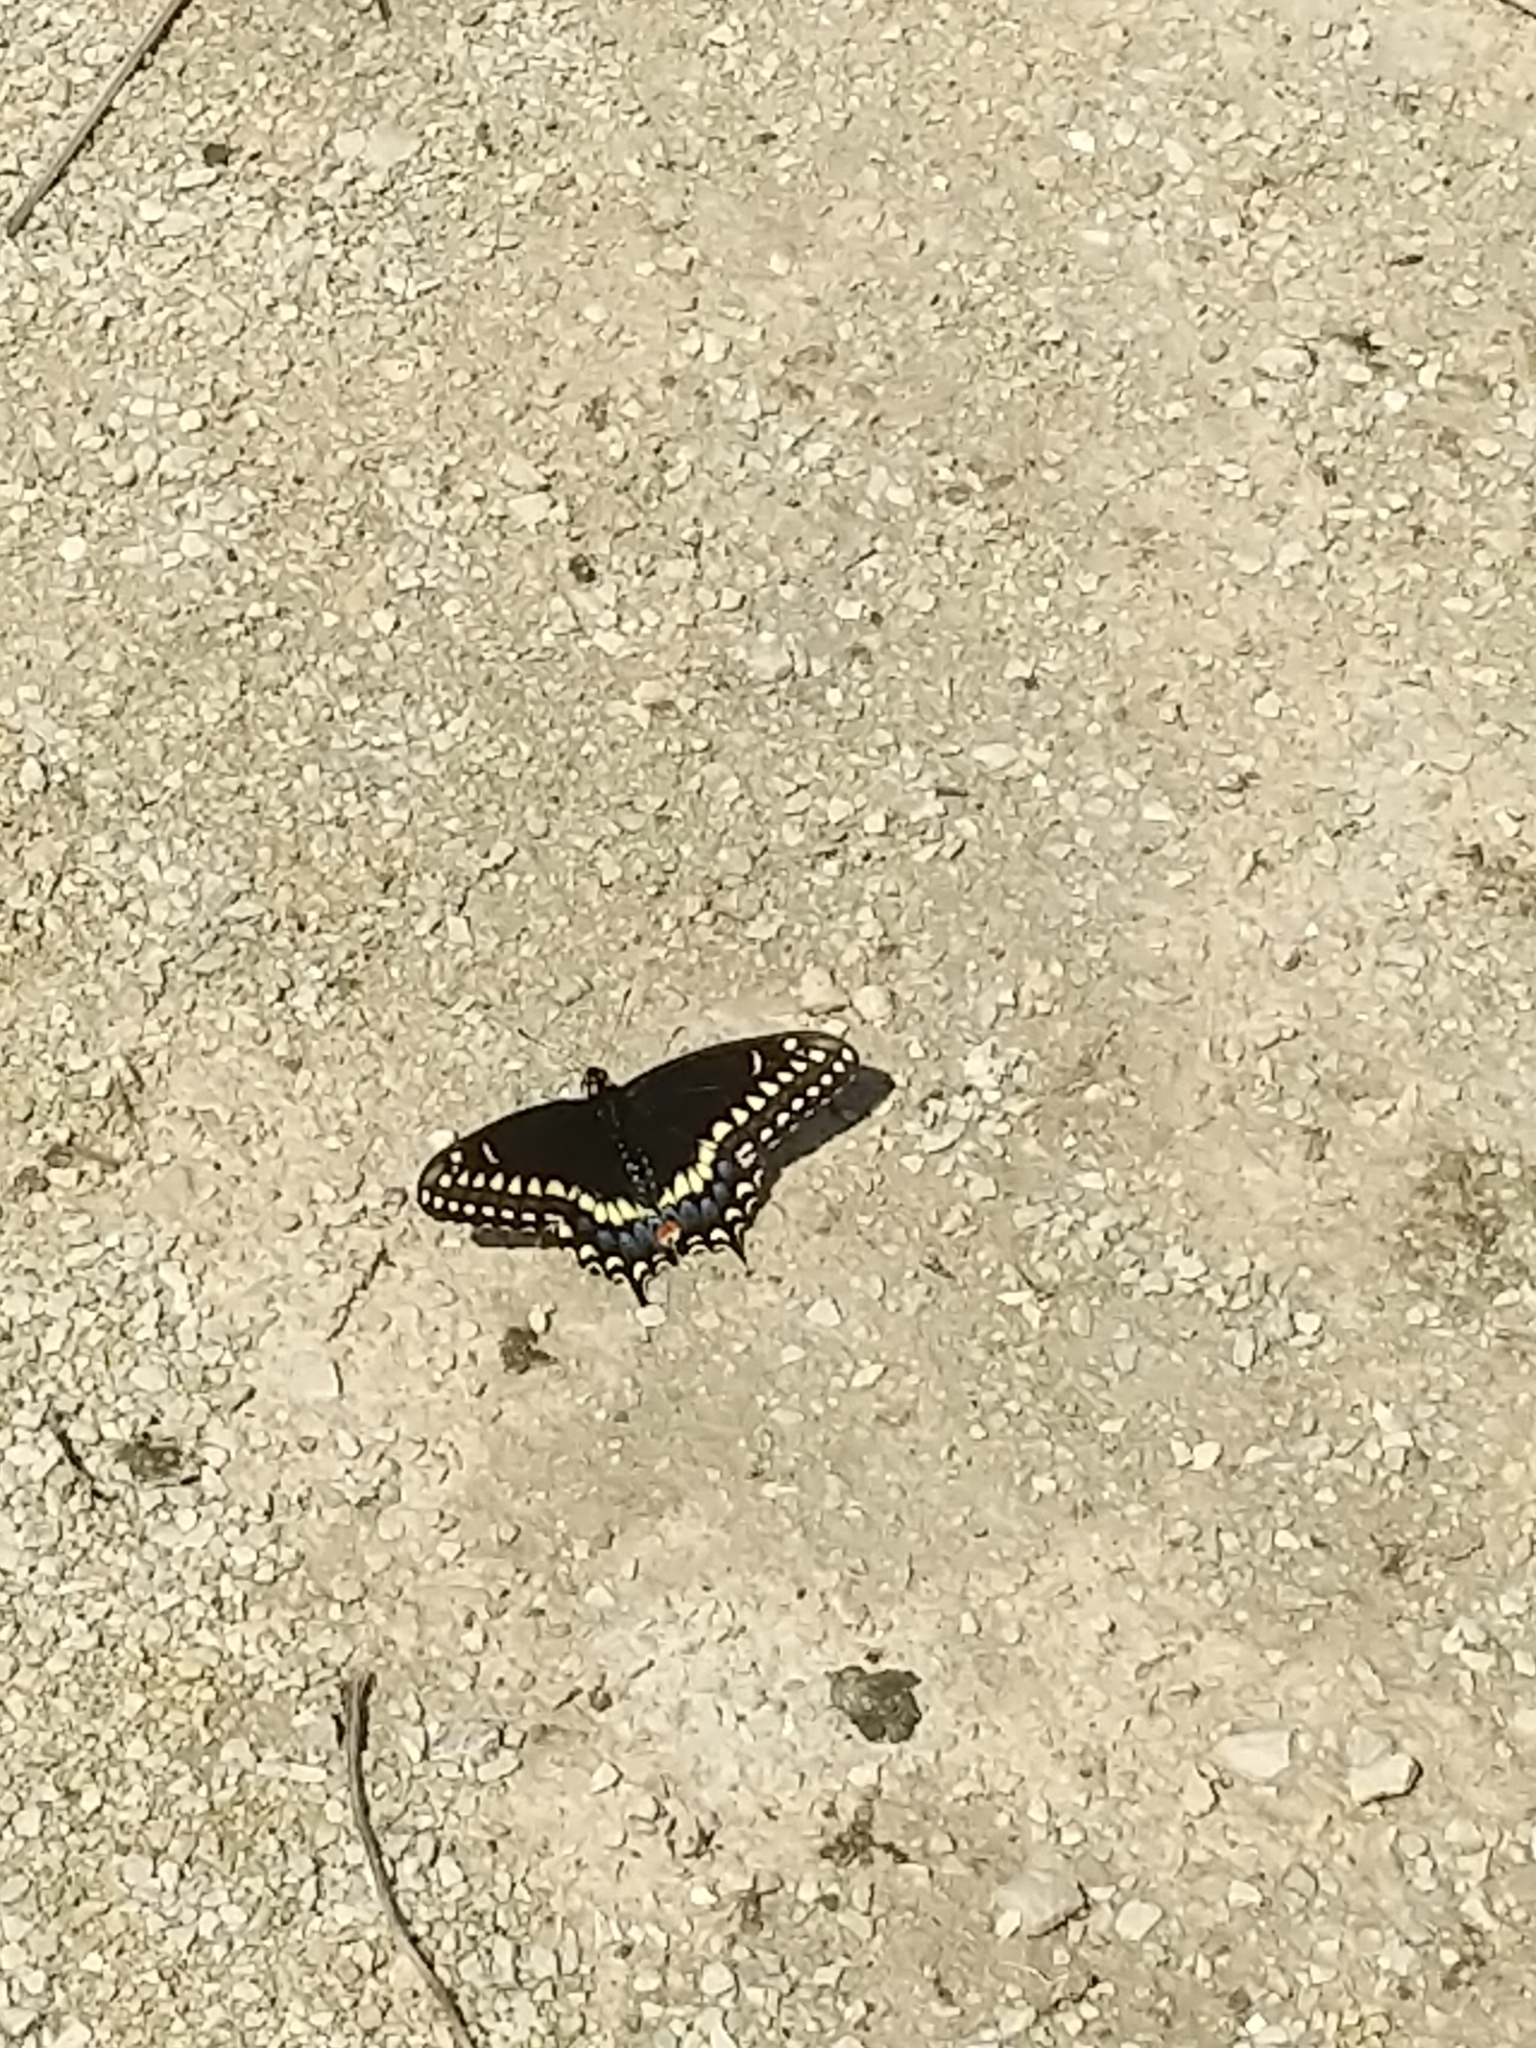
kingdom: Animalia
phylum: Arthropoda
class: Insecta
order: Lepidoptera
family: Papilionidae
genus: Papilio
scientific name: Papilio polyxenes
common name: Black swallowtail
